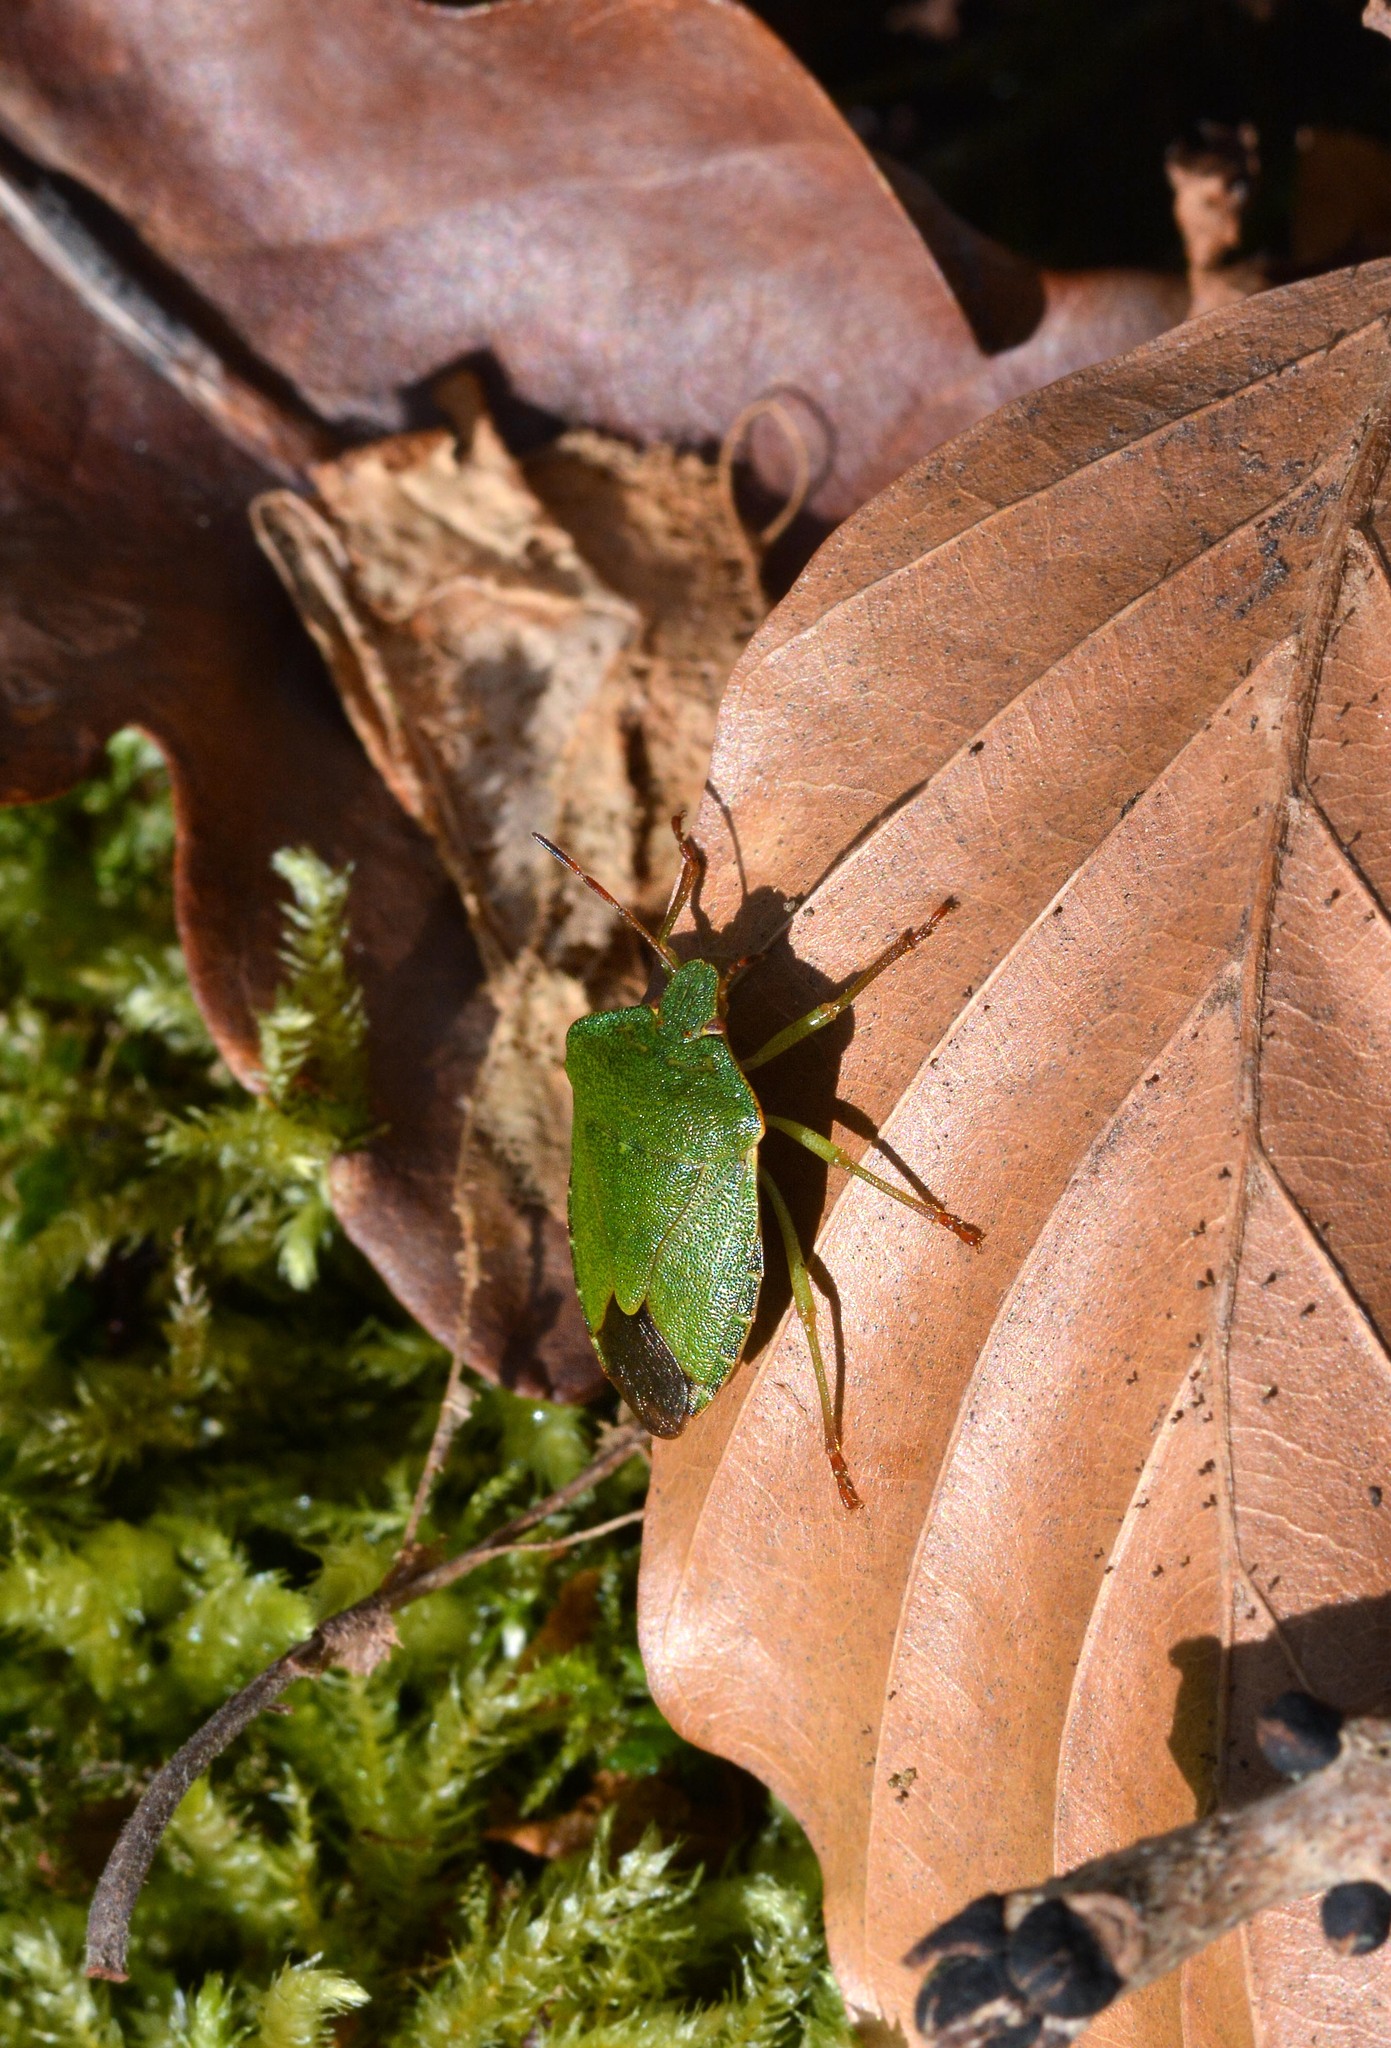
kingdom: Animalia
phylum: Arthropoda
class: Insecta
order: Hemiptera
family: Pentatomidae
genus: Palomena
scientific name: Palomena prasina
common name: Green shieldbug
